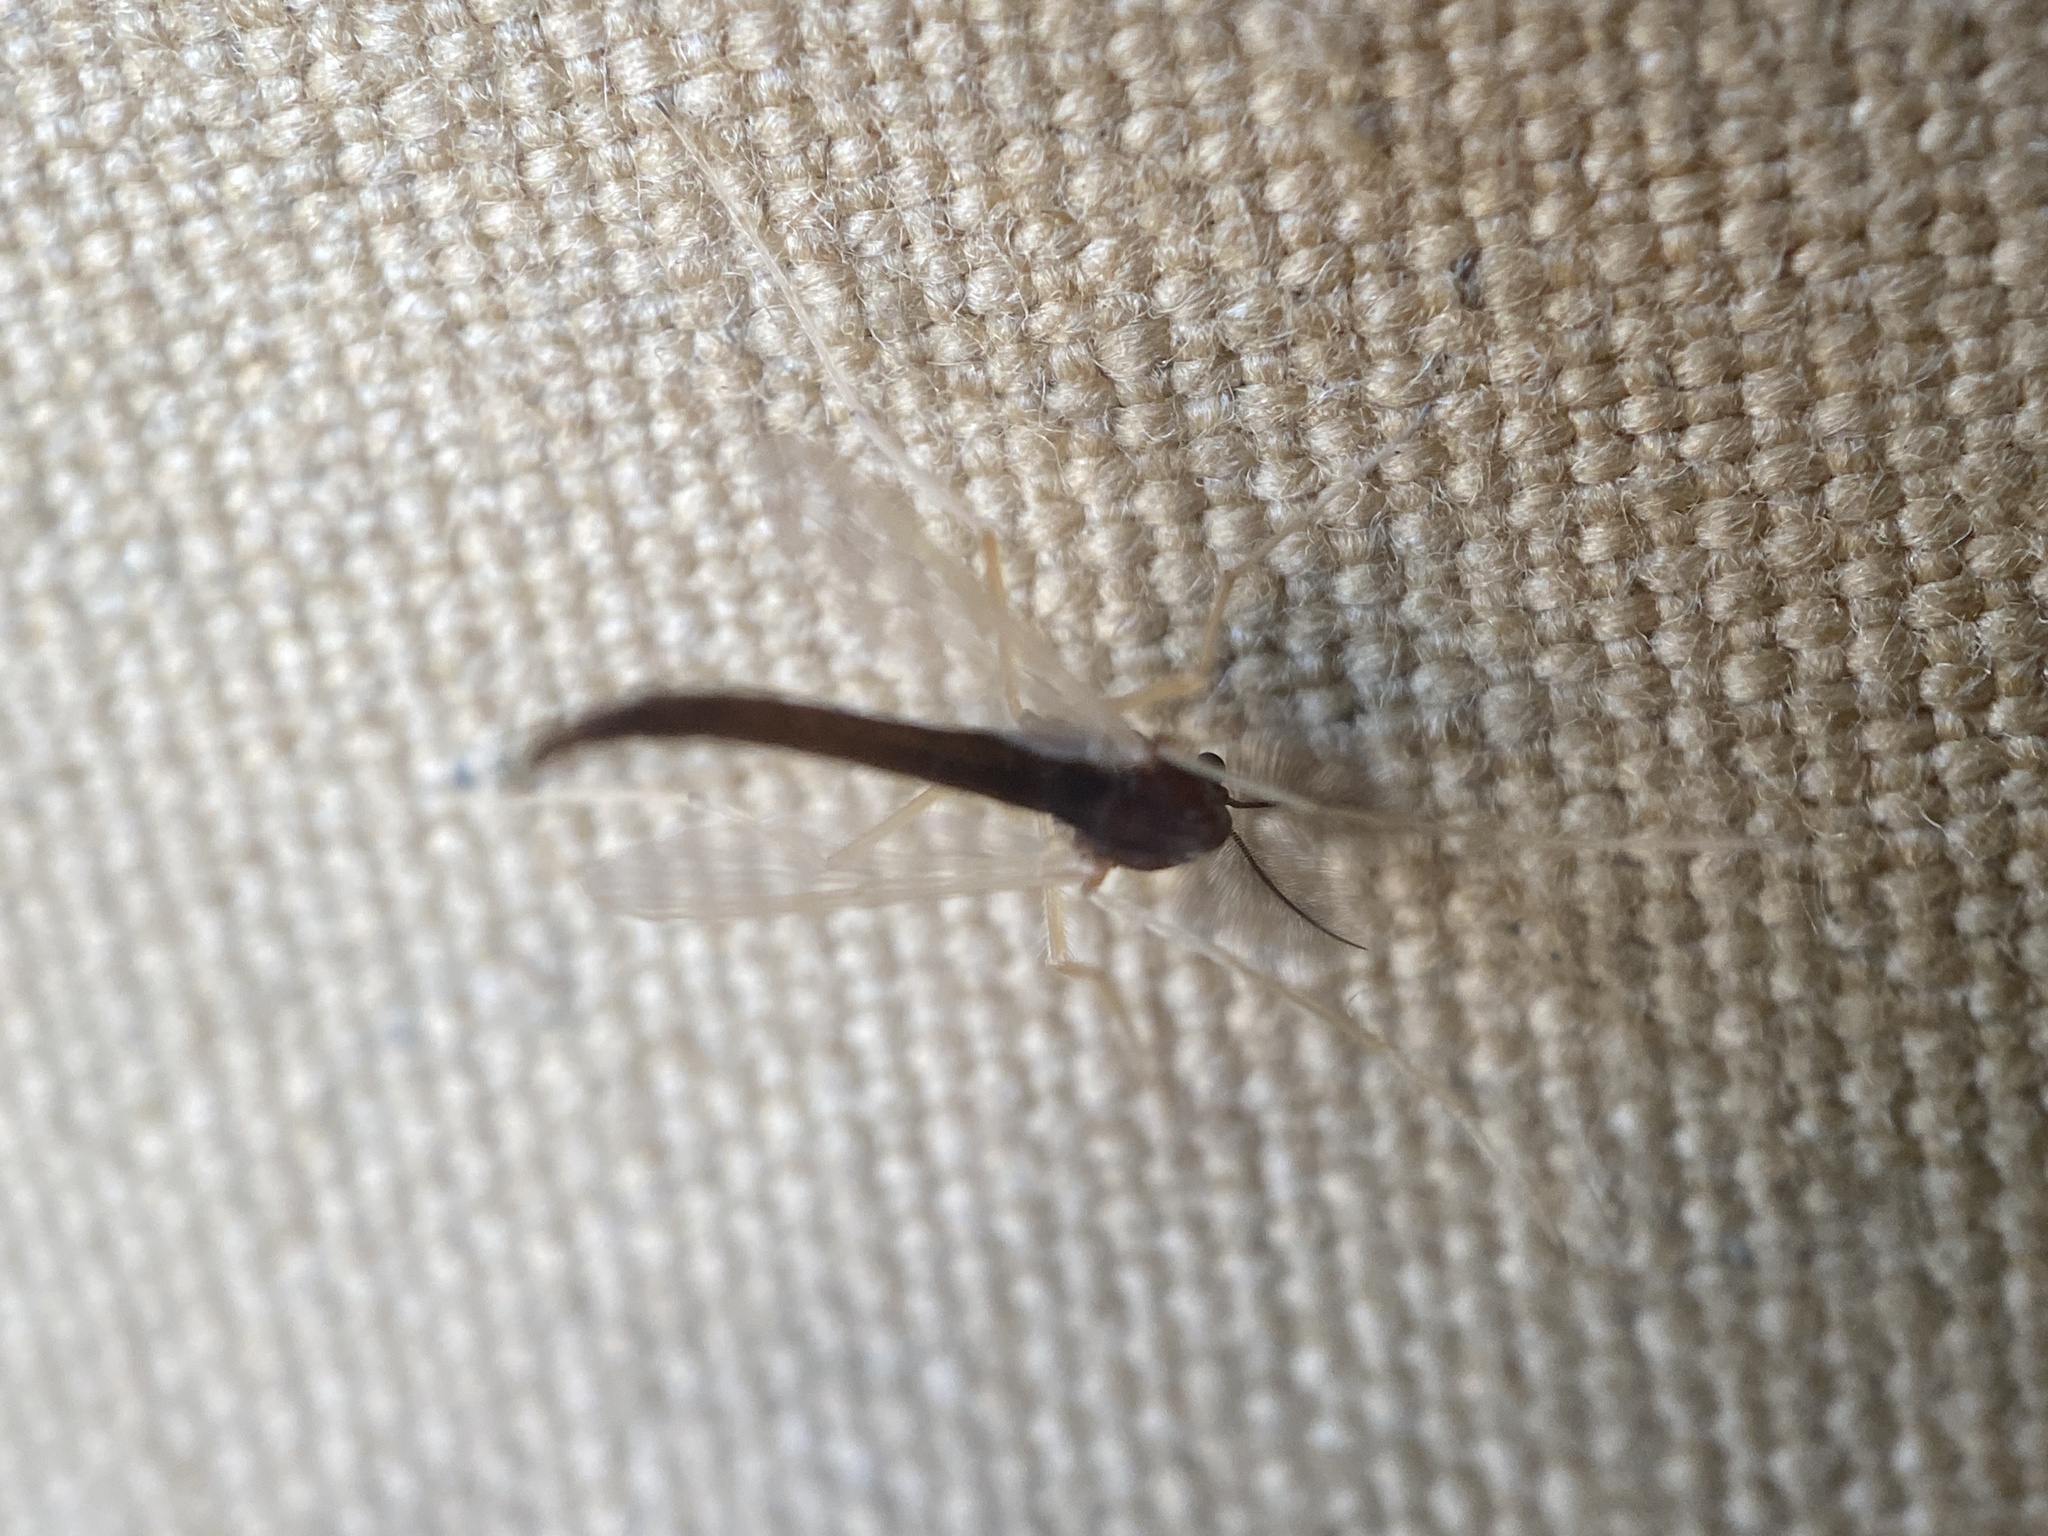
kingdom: Animalia
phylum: Arthropoda
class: Insecta
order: Diptera
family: Chironomidae
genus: Hyporhygma
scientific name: Hyporhygma quadripunctatus
